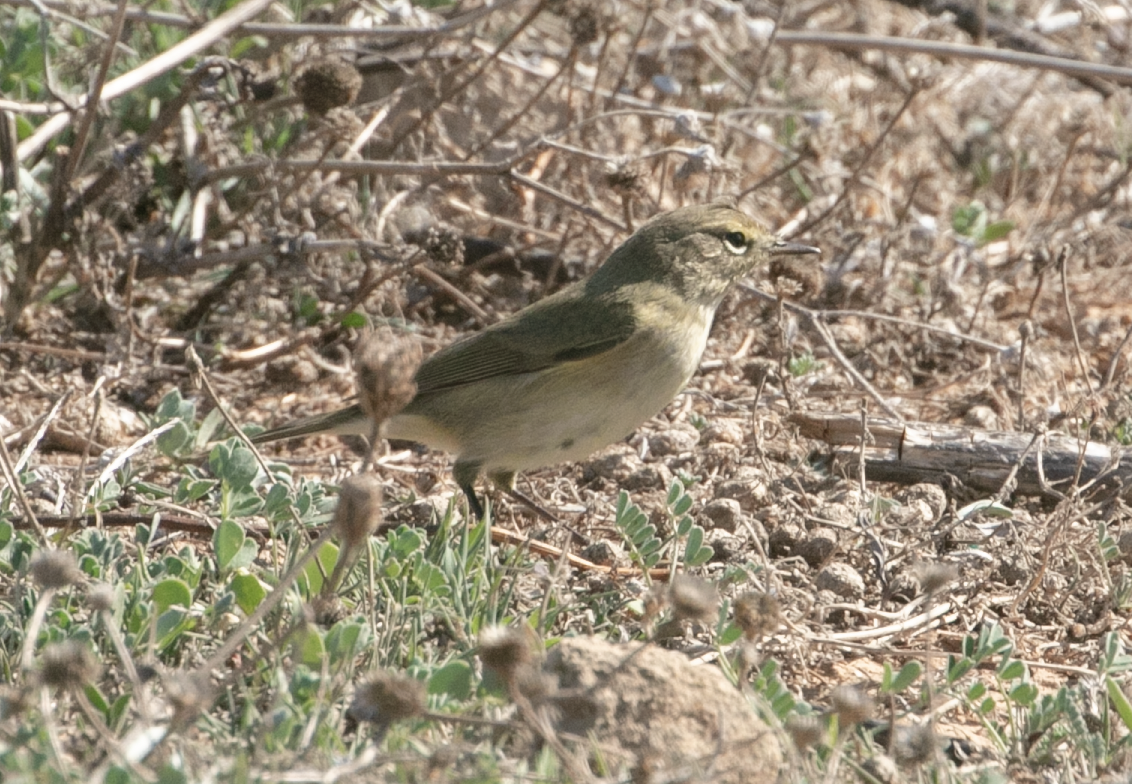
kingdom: Animalia
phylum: Chordata
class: Aves
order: Passeriformes
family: Phylloscopidae
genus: Phylloscopus
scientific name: Phylloscopus collybita
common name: Common chiffchaff
